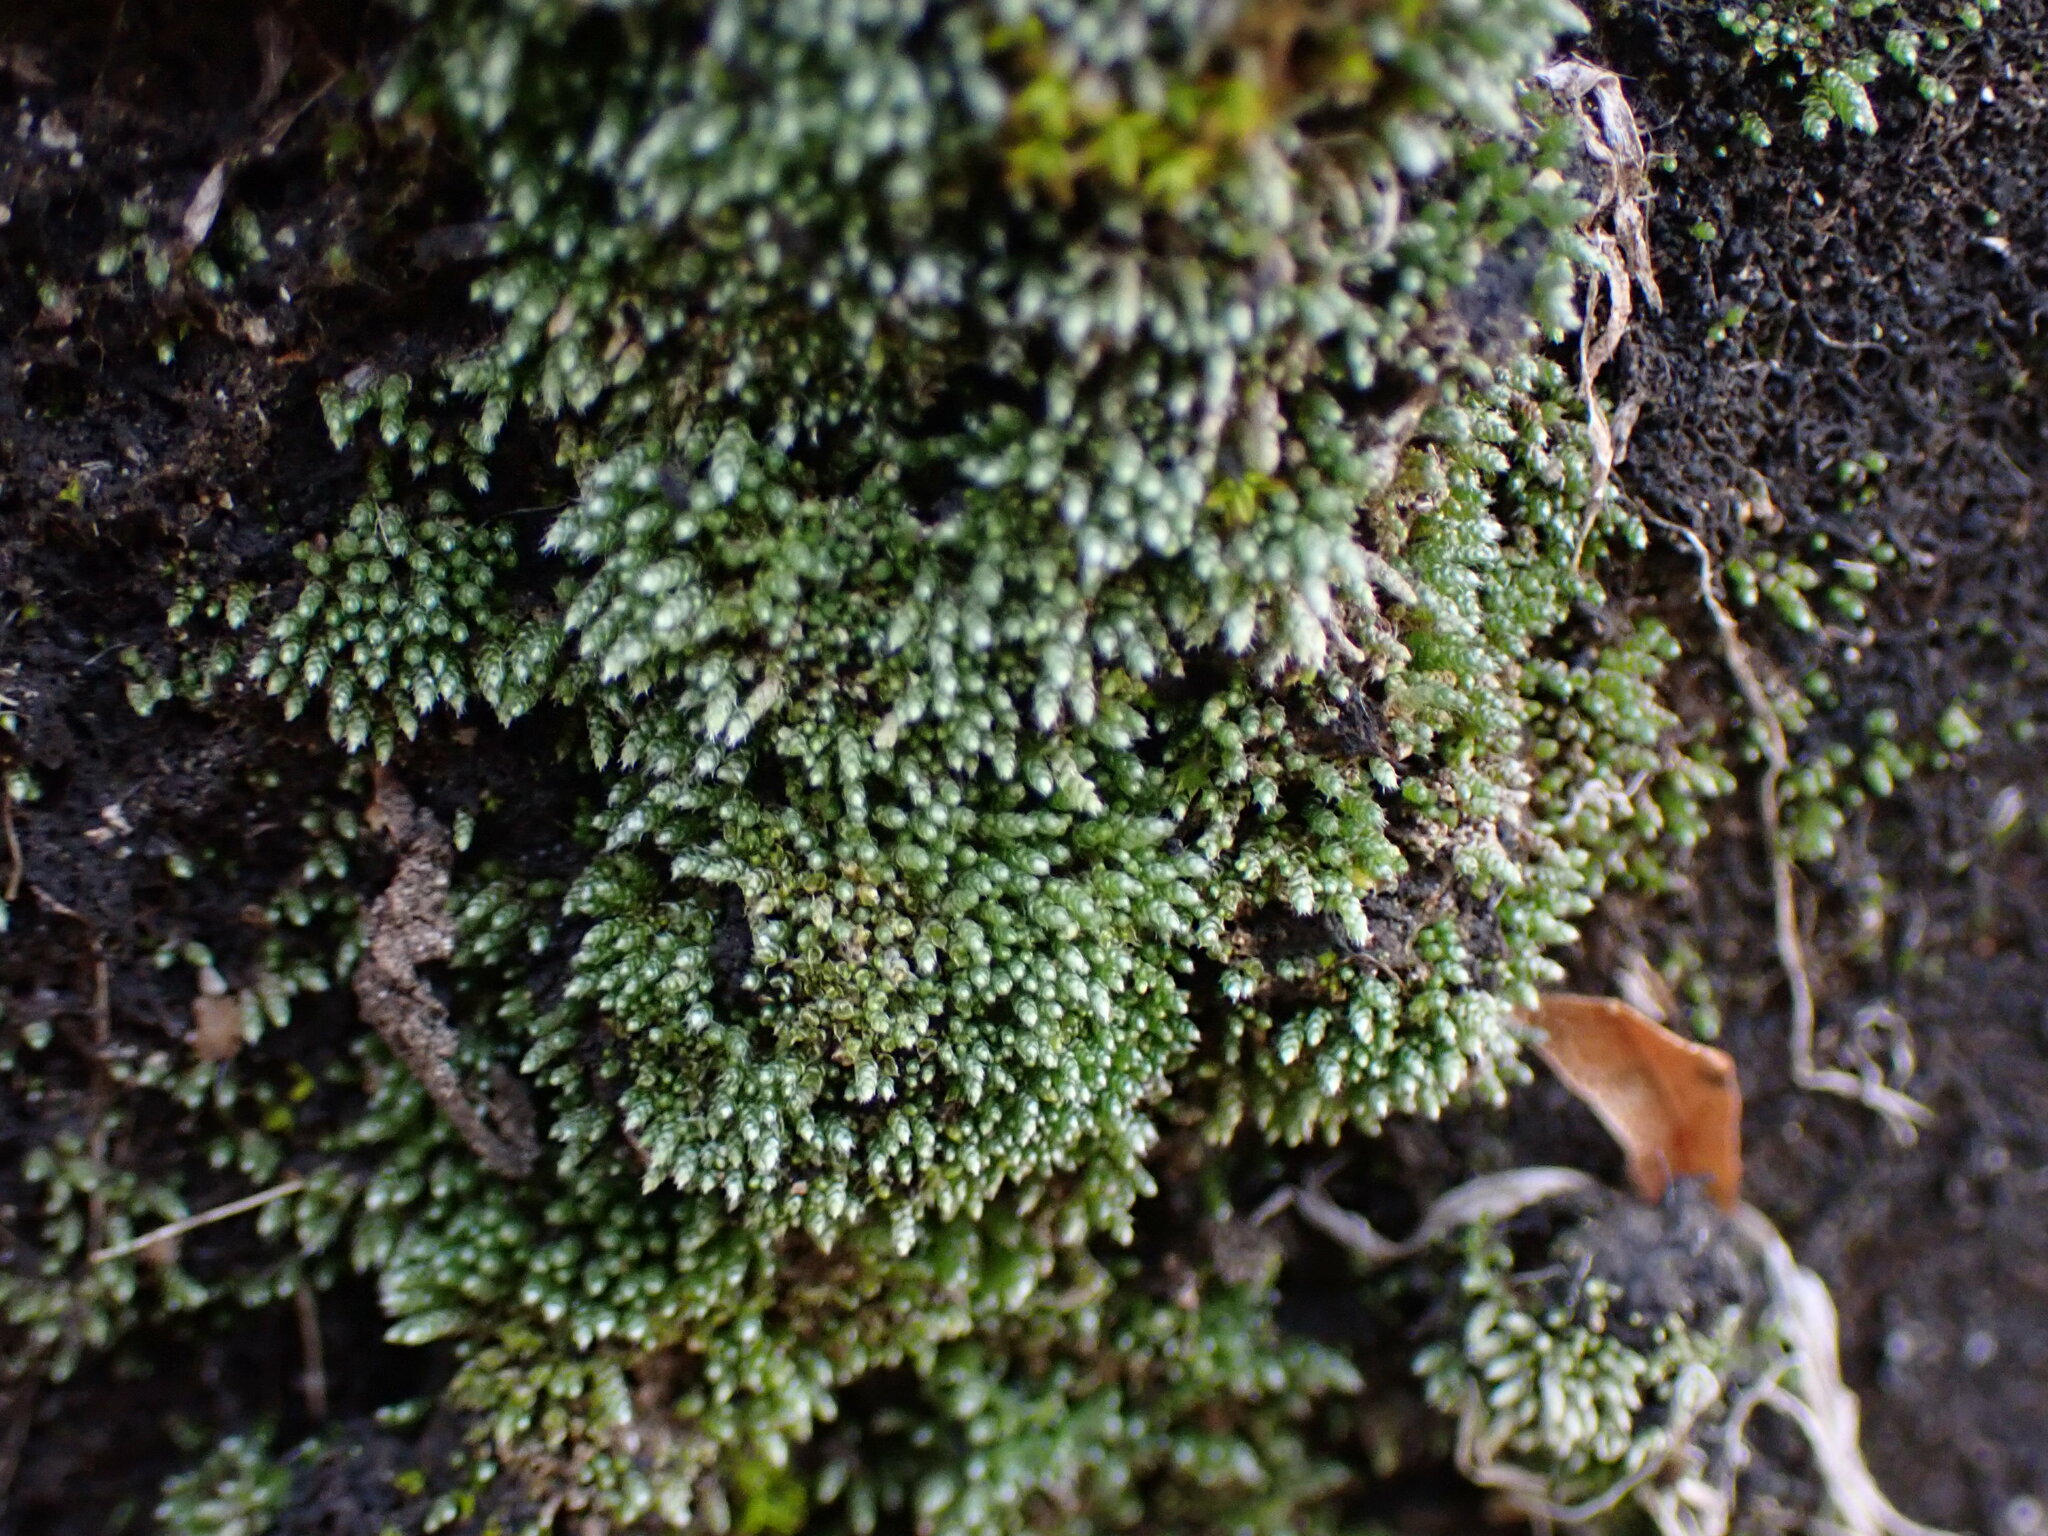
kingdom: Plantae
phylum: Bryophyta
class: Bryopsida
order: Bryales
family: Bryaceae
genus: Bryum
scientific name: Bryum argenteum
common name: Silver-moss
